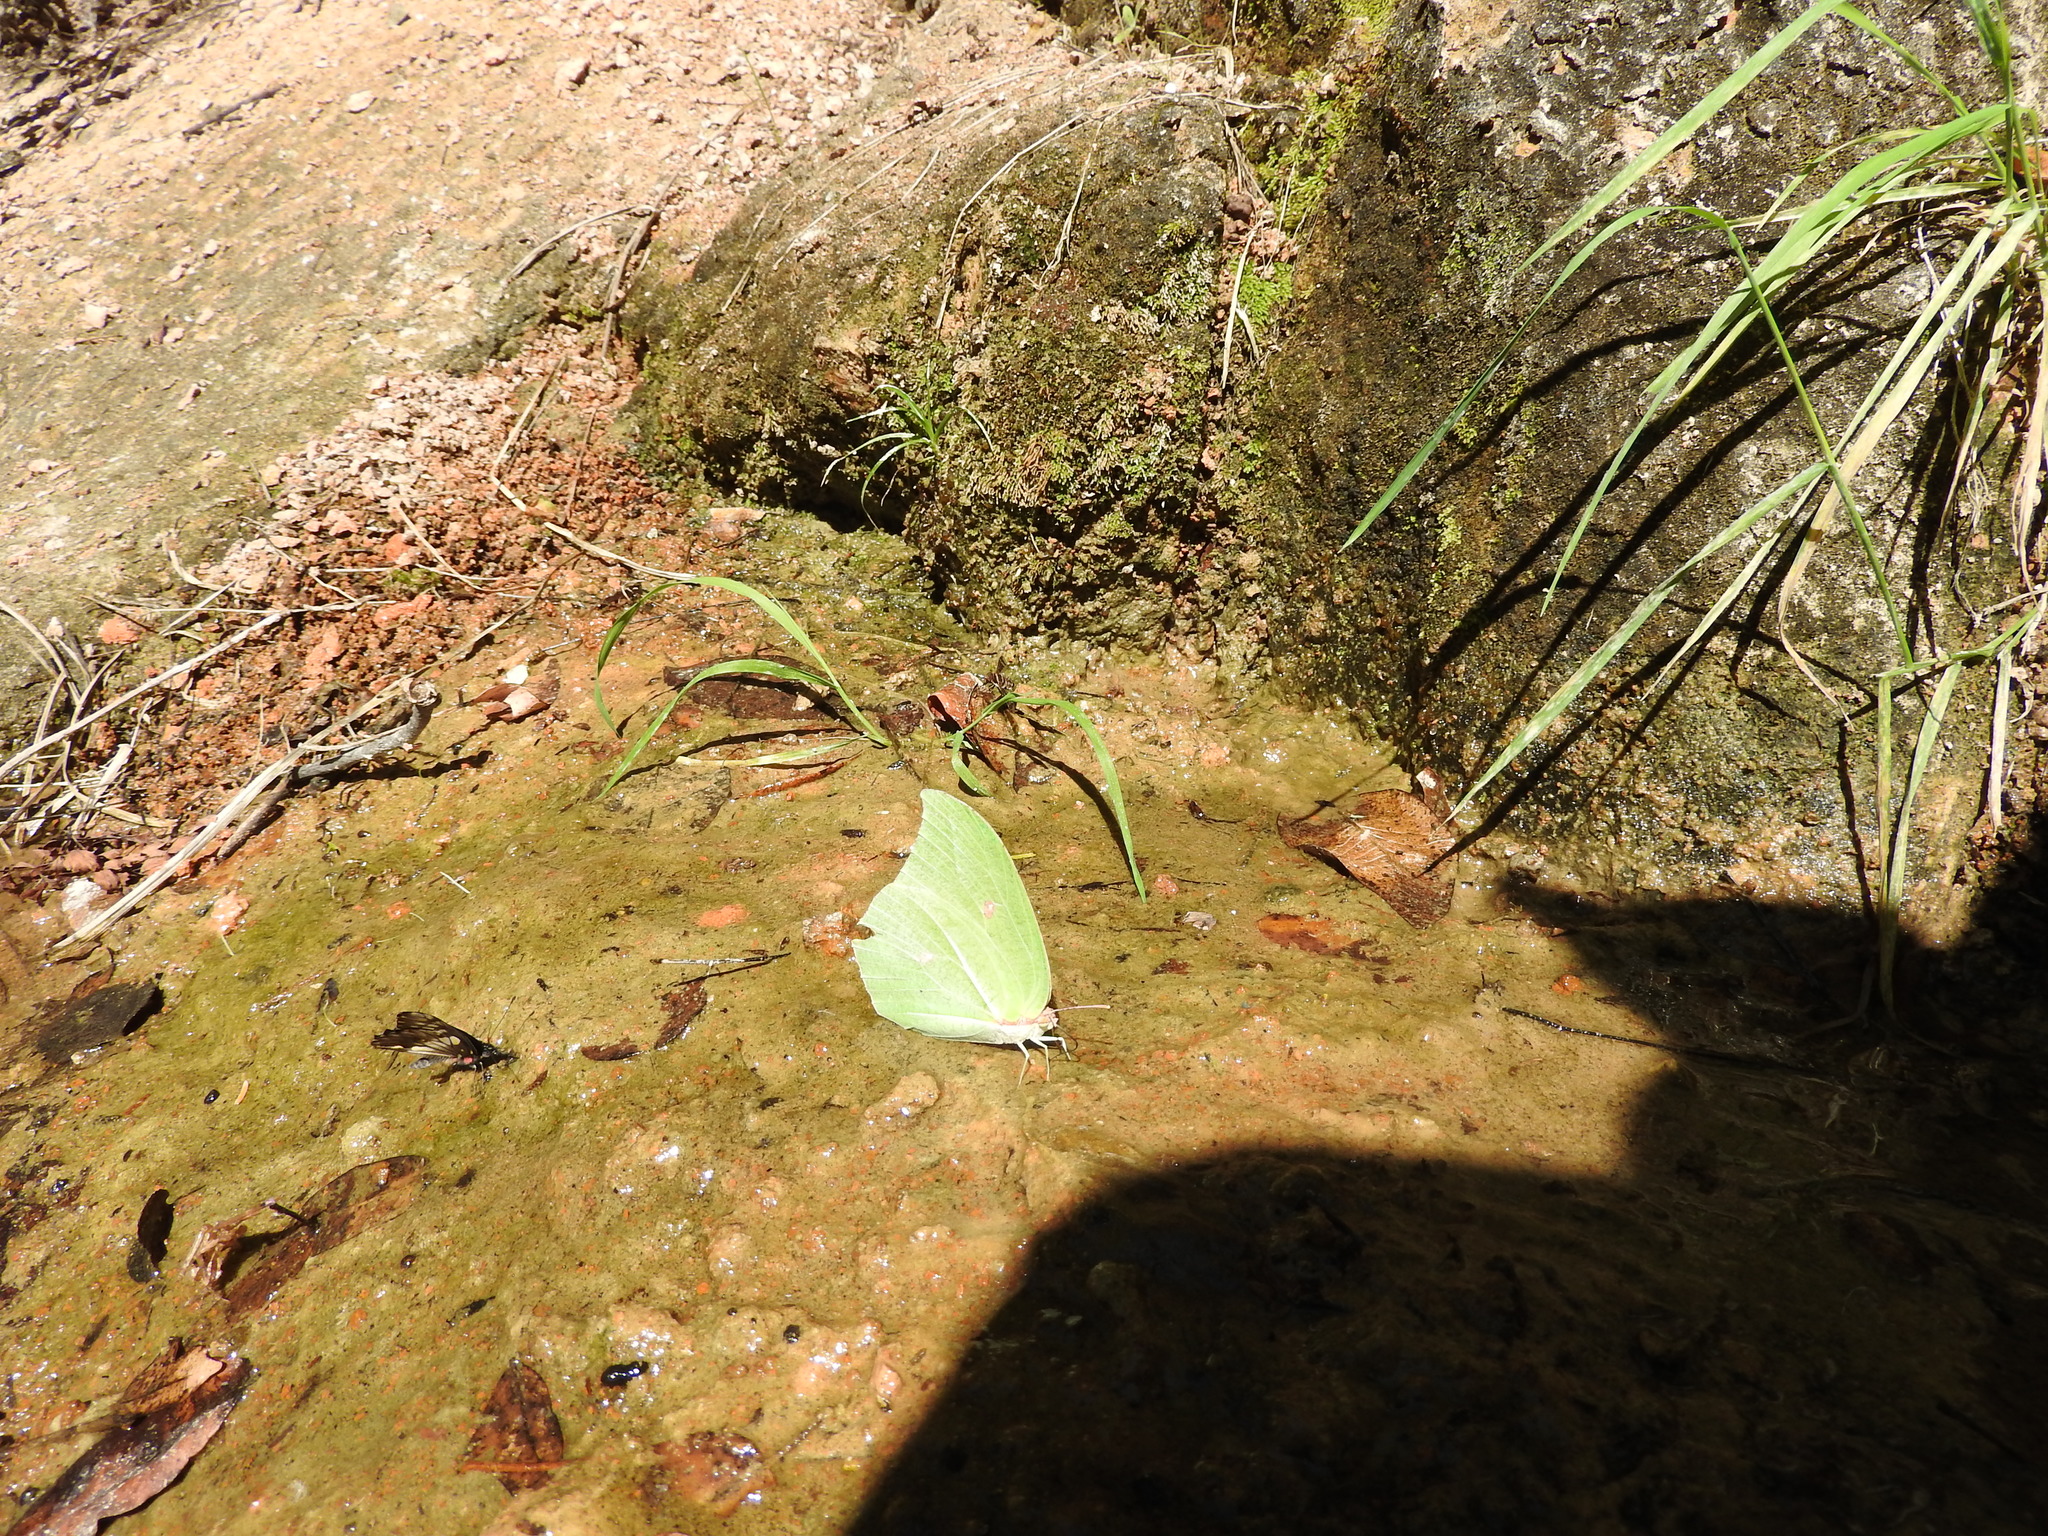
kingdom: Animalia
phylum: Arthropoda
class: Insecta
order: Lepidoptera
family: Pieridae
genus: Anteos
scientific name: Anteos maerula
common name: Angled sulphur
